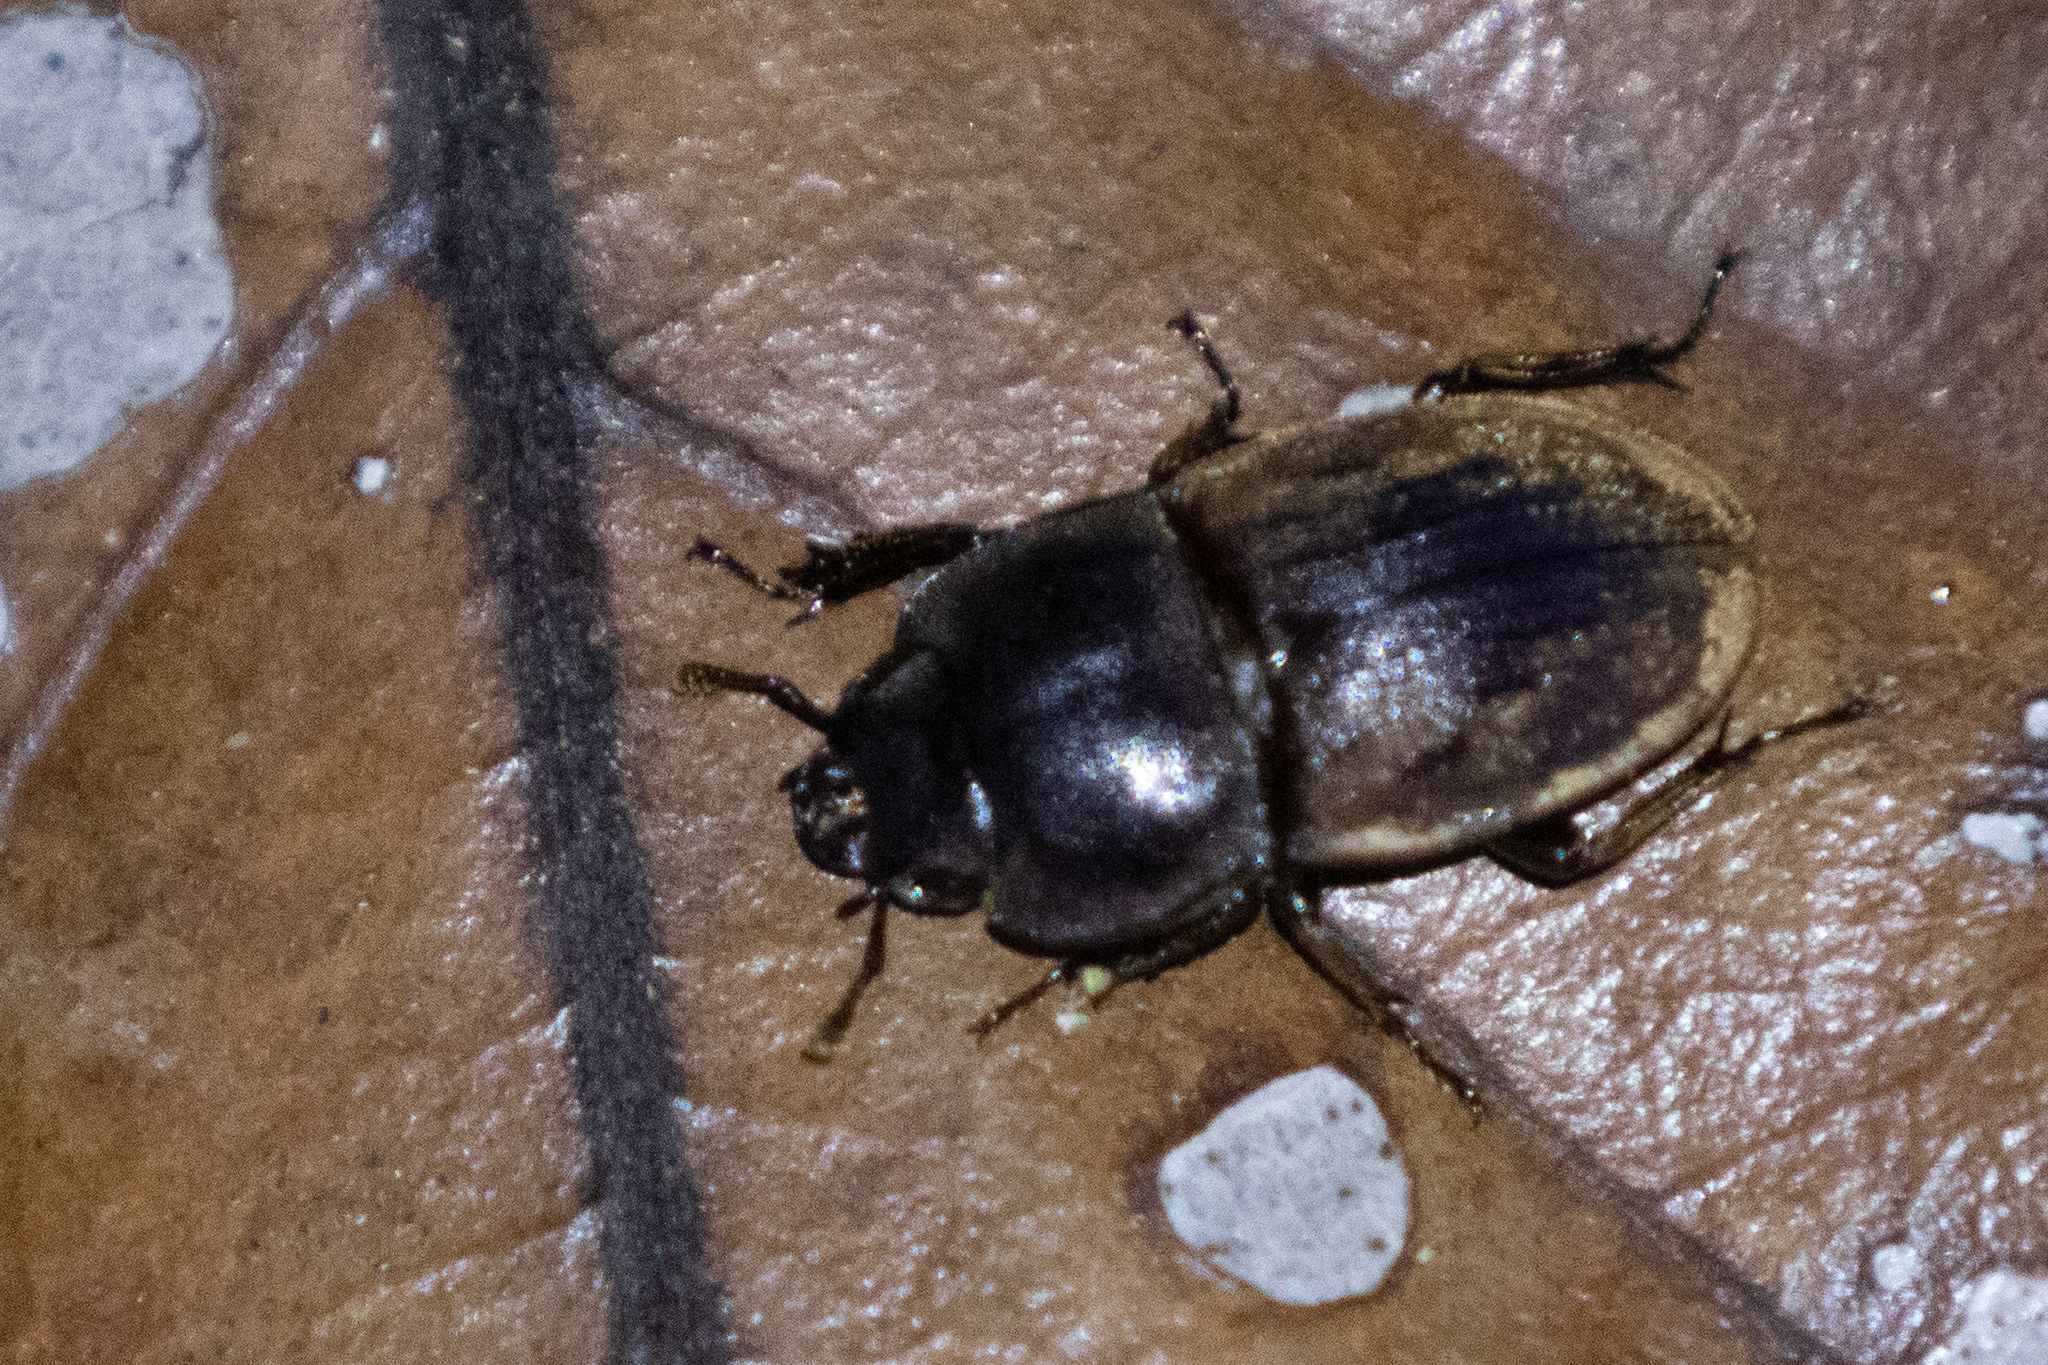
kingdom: Animalia
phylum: Arthropoda
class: Insecta
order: Coleoptera
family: Lucanidae
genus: Paralissotes
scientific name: Paralissotes planus
